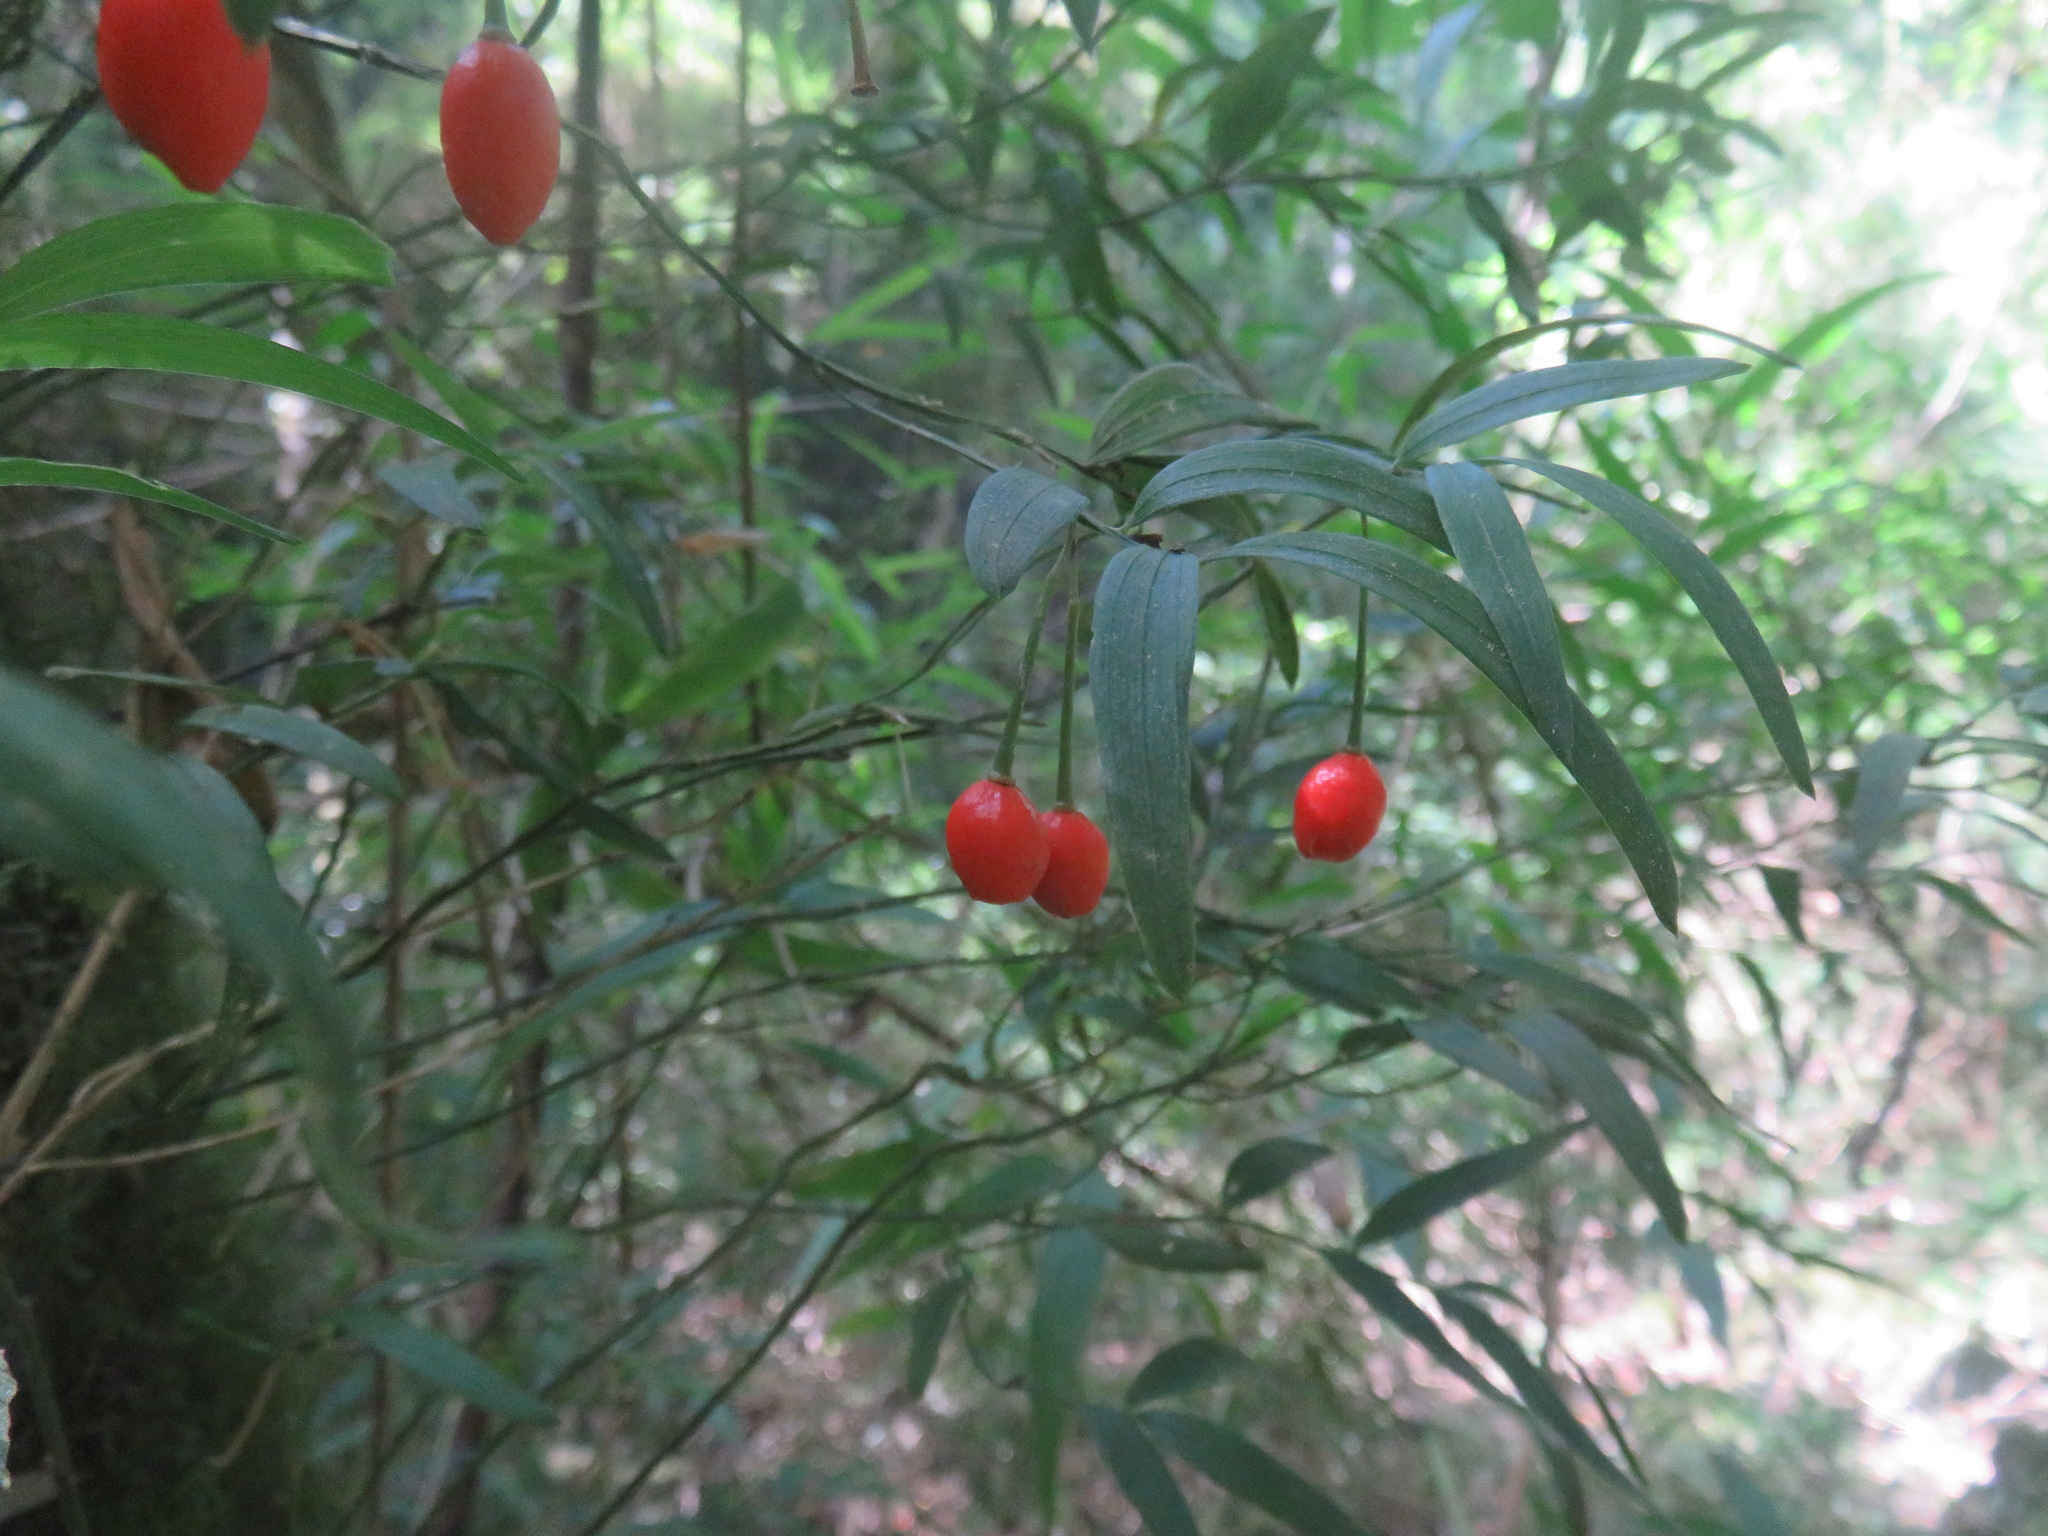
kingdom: Plantae
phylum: Tracheophyta
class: Liliopsida
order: Liliales
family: Alstroemeriaceae
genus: Luzuriaga
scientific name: Luzuriaga radicans
